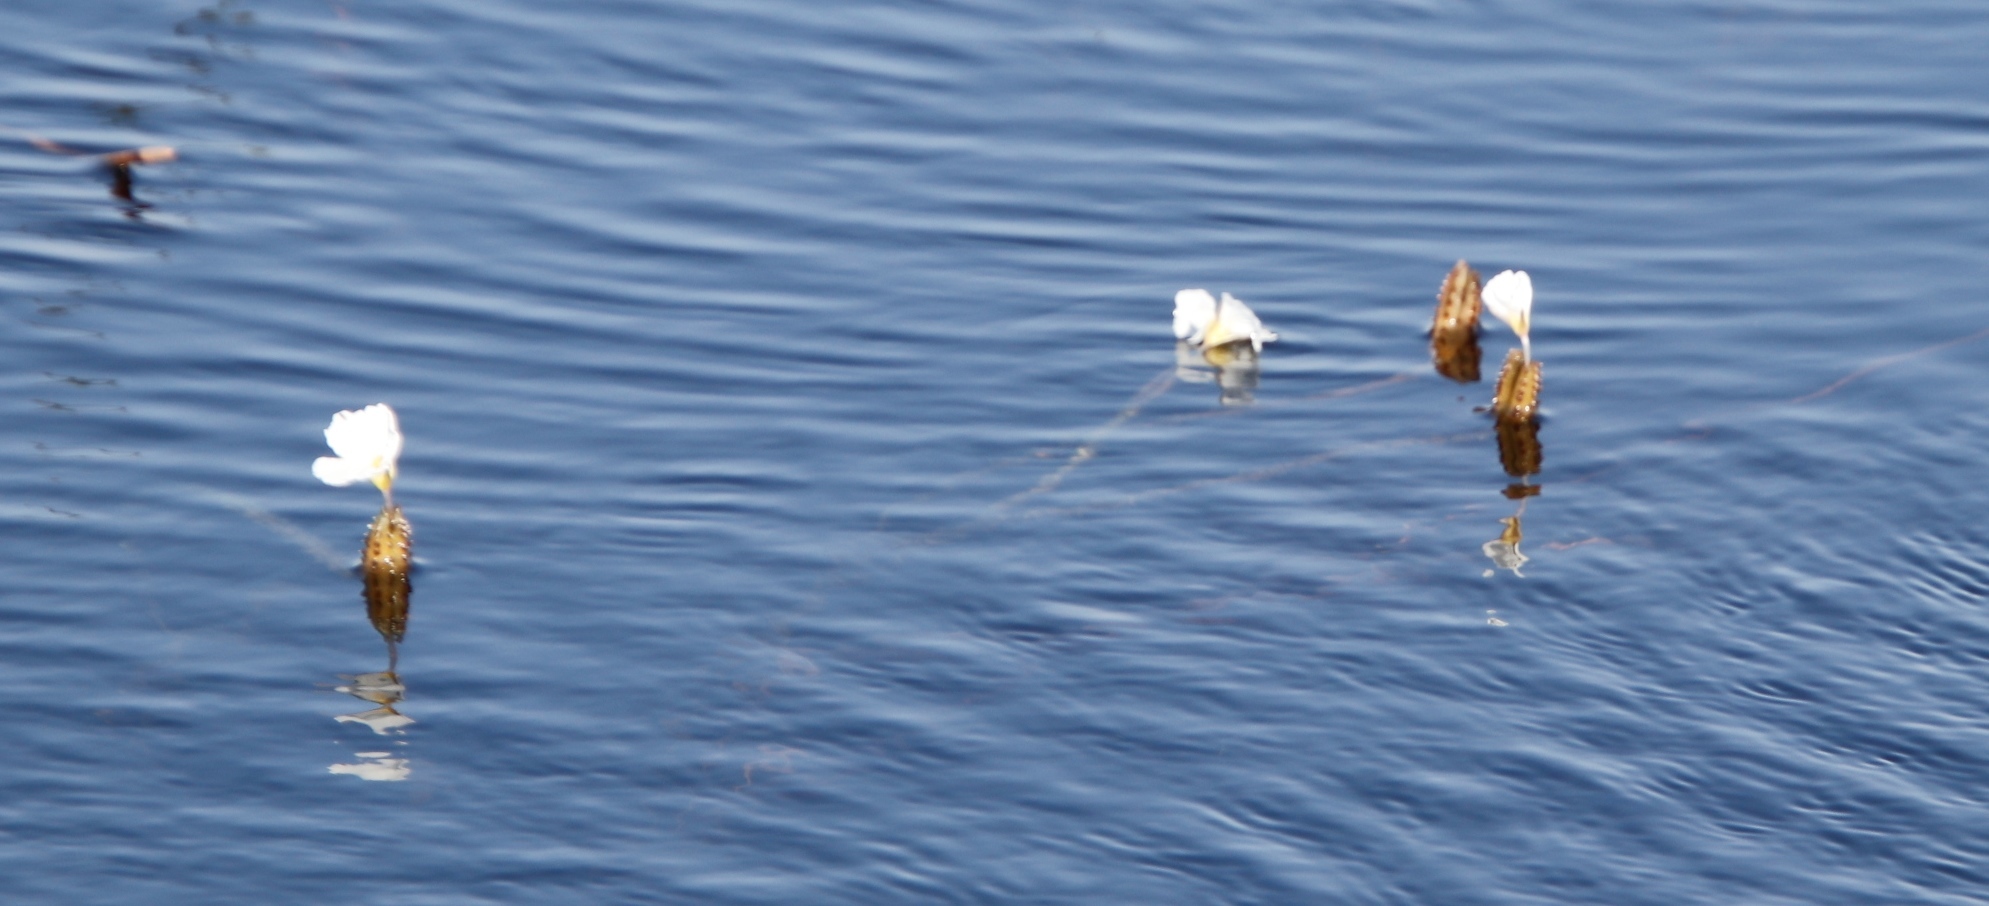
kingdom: Plantae
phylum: Tracheophyta
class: Liliopsida
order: Alismatales
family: Hydrocharitaceae
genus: Ottelia
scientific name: Ottelia muricata
